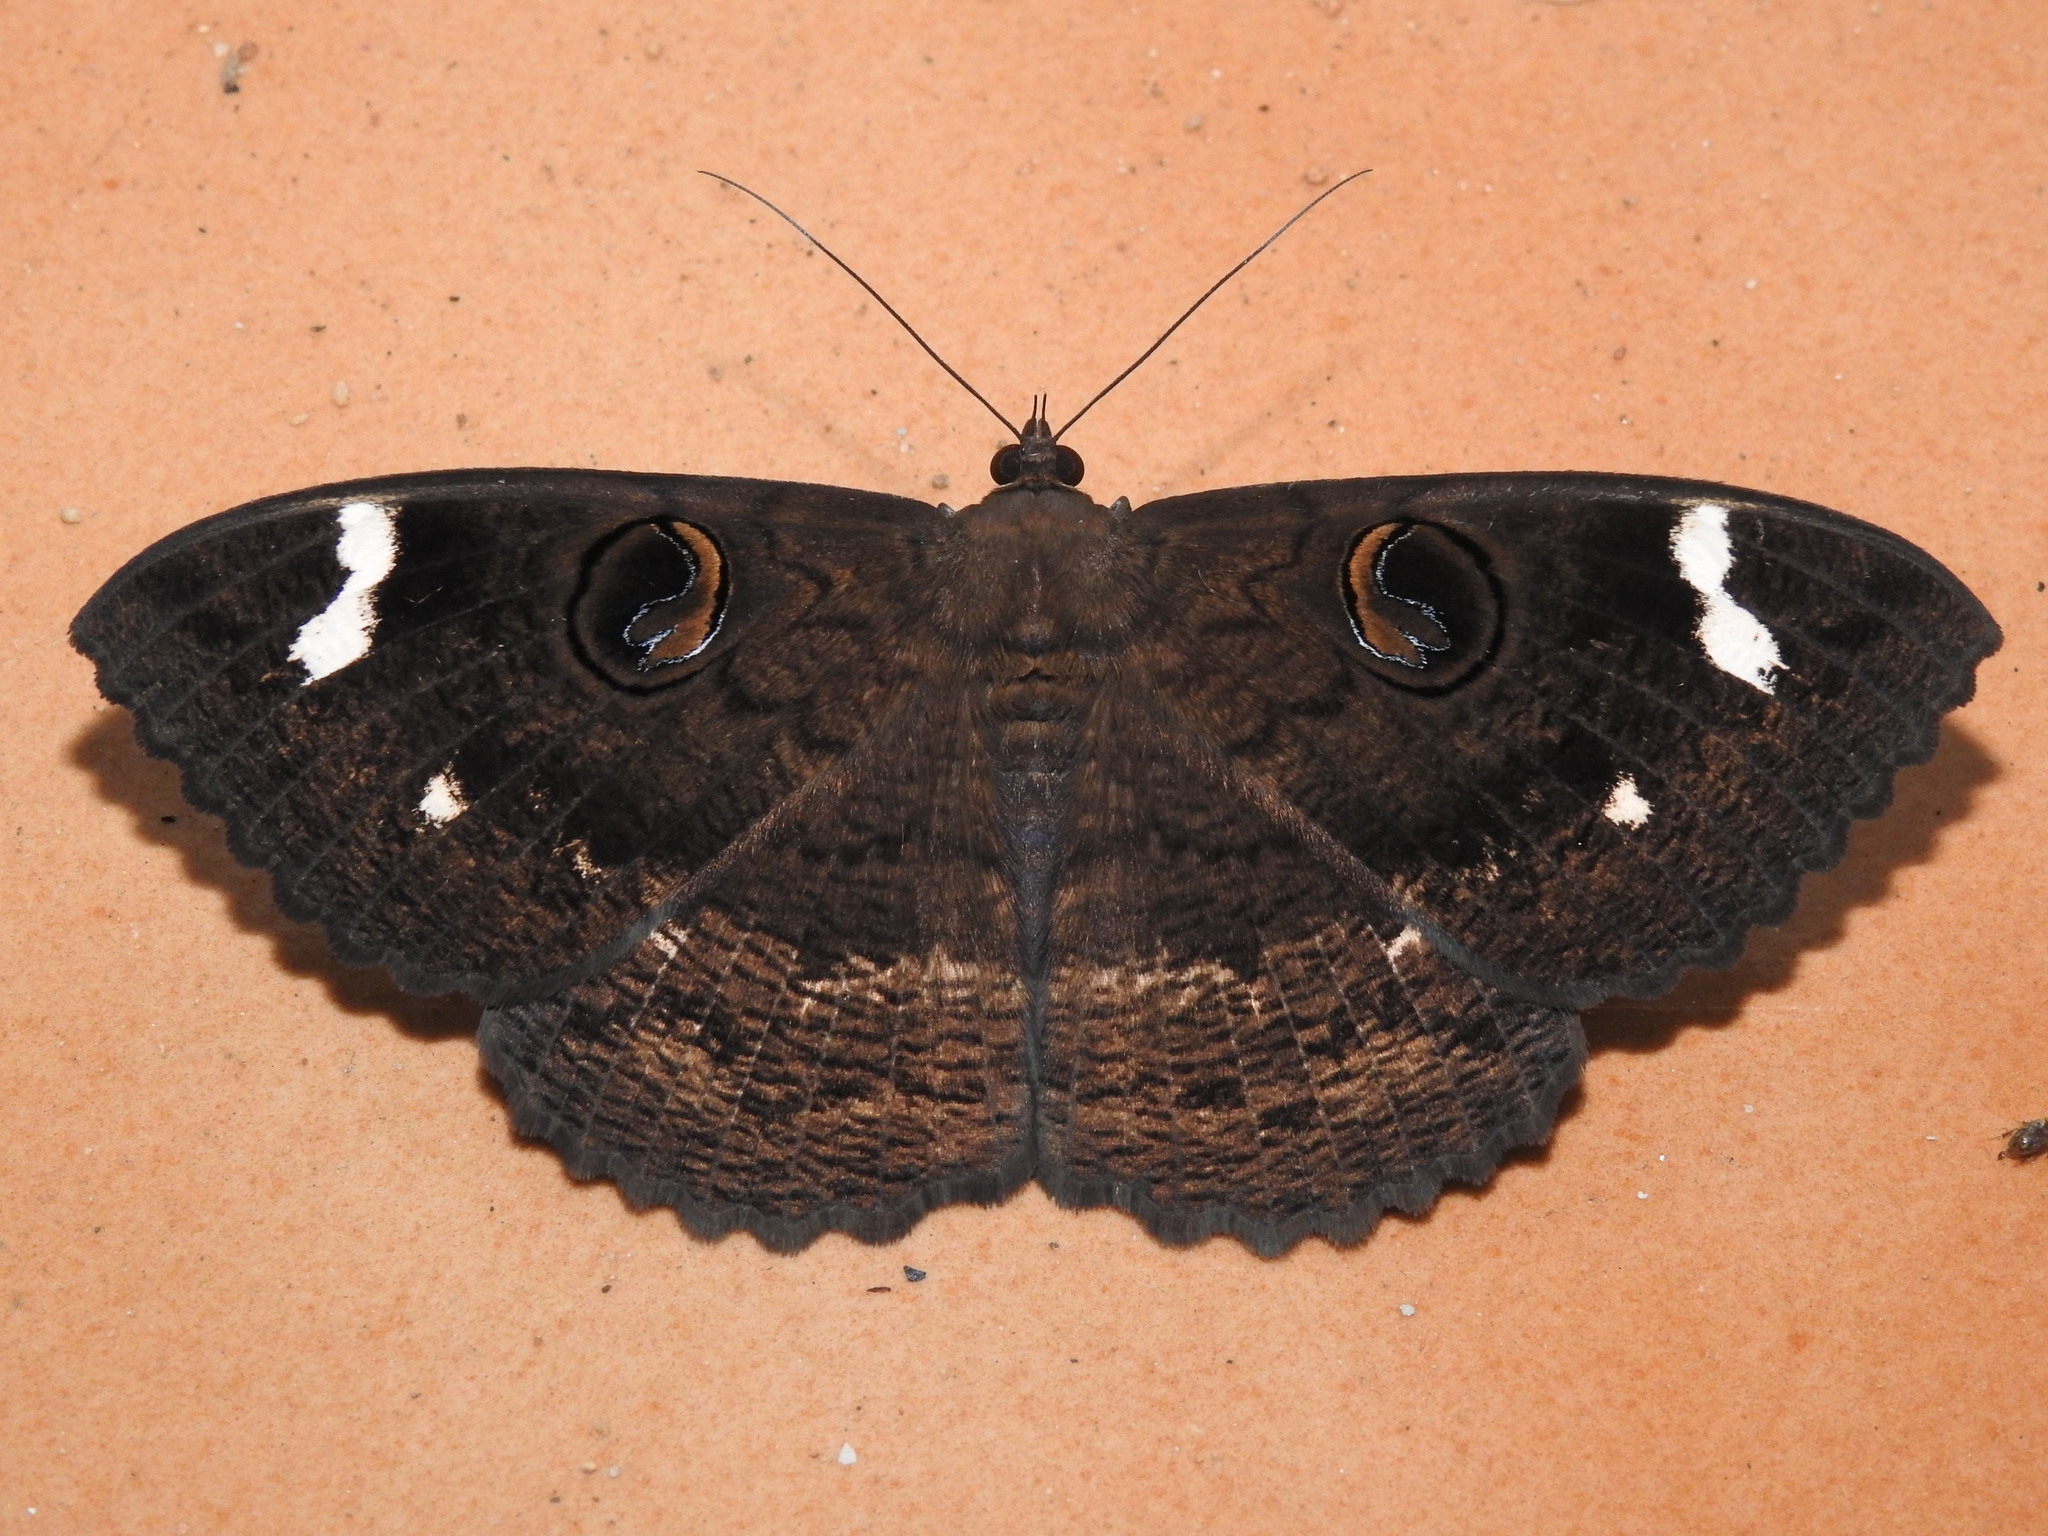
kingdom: Animalia
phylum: Arthropoda
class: Insecta
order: Lepidoptera
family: Erebidae
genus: Erebus
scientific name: Erebus hieroglyphica
